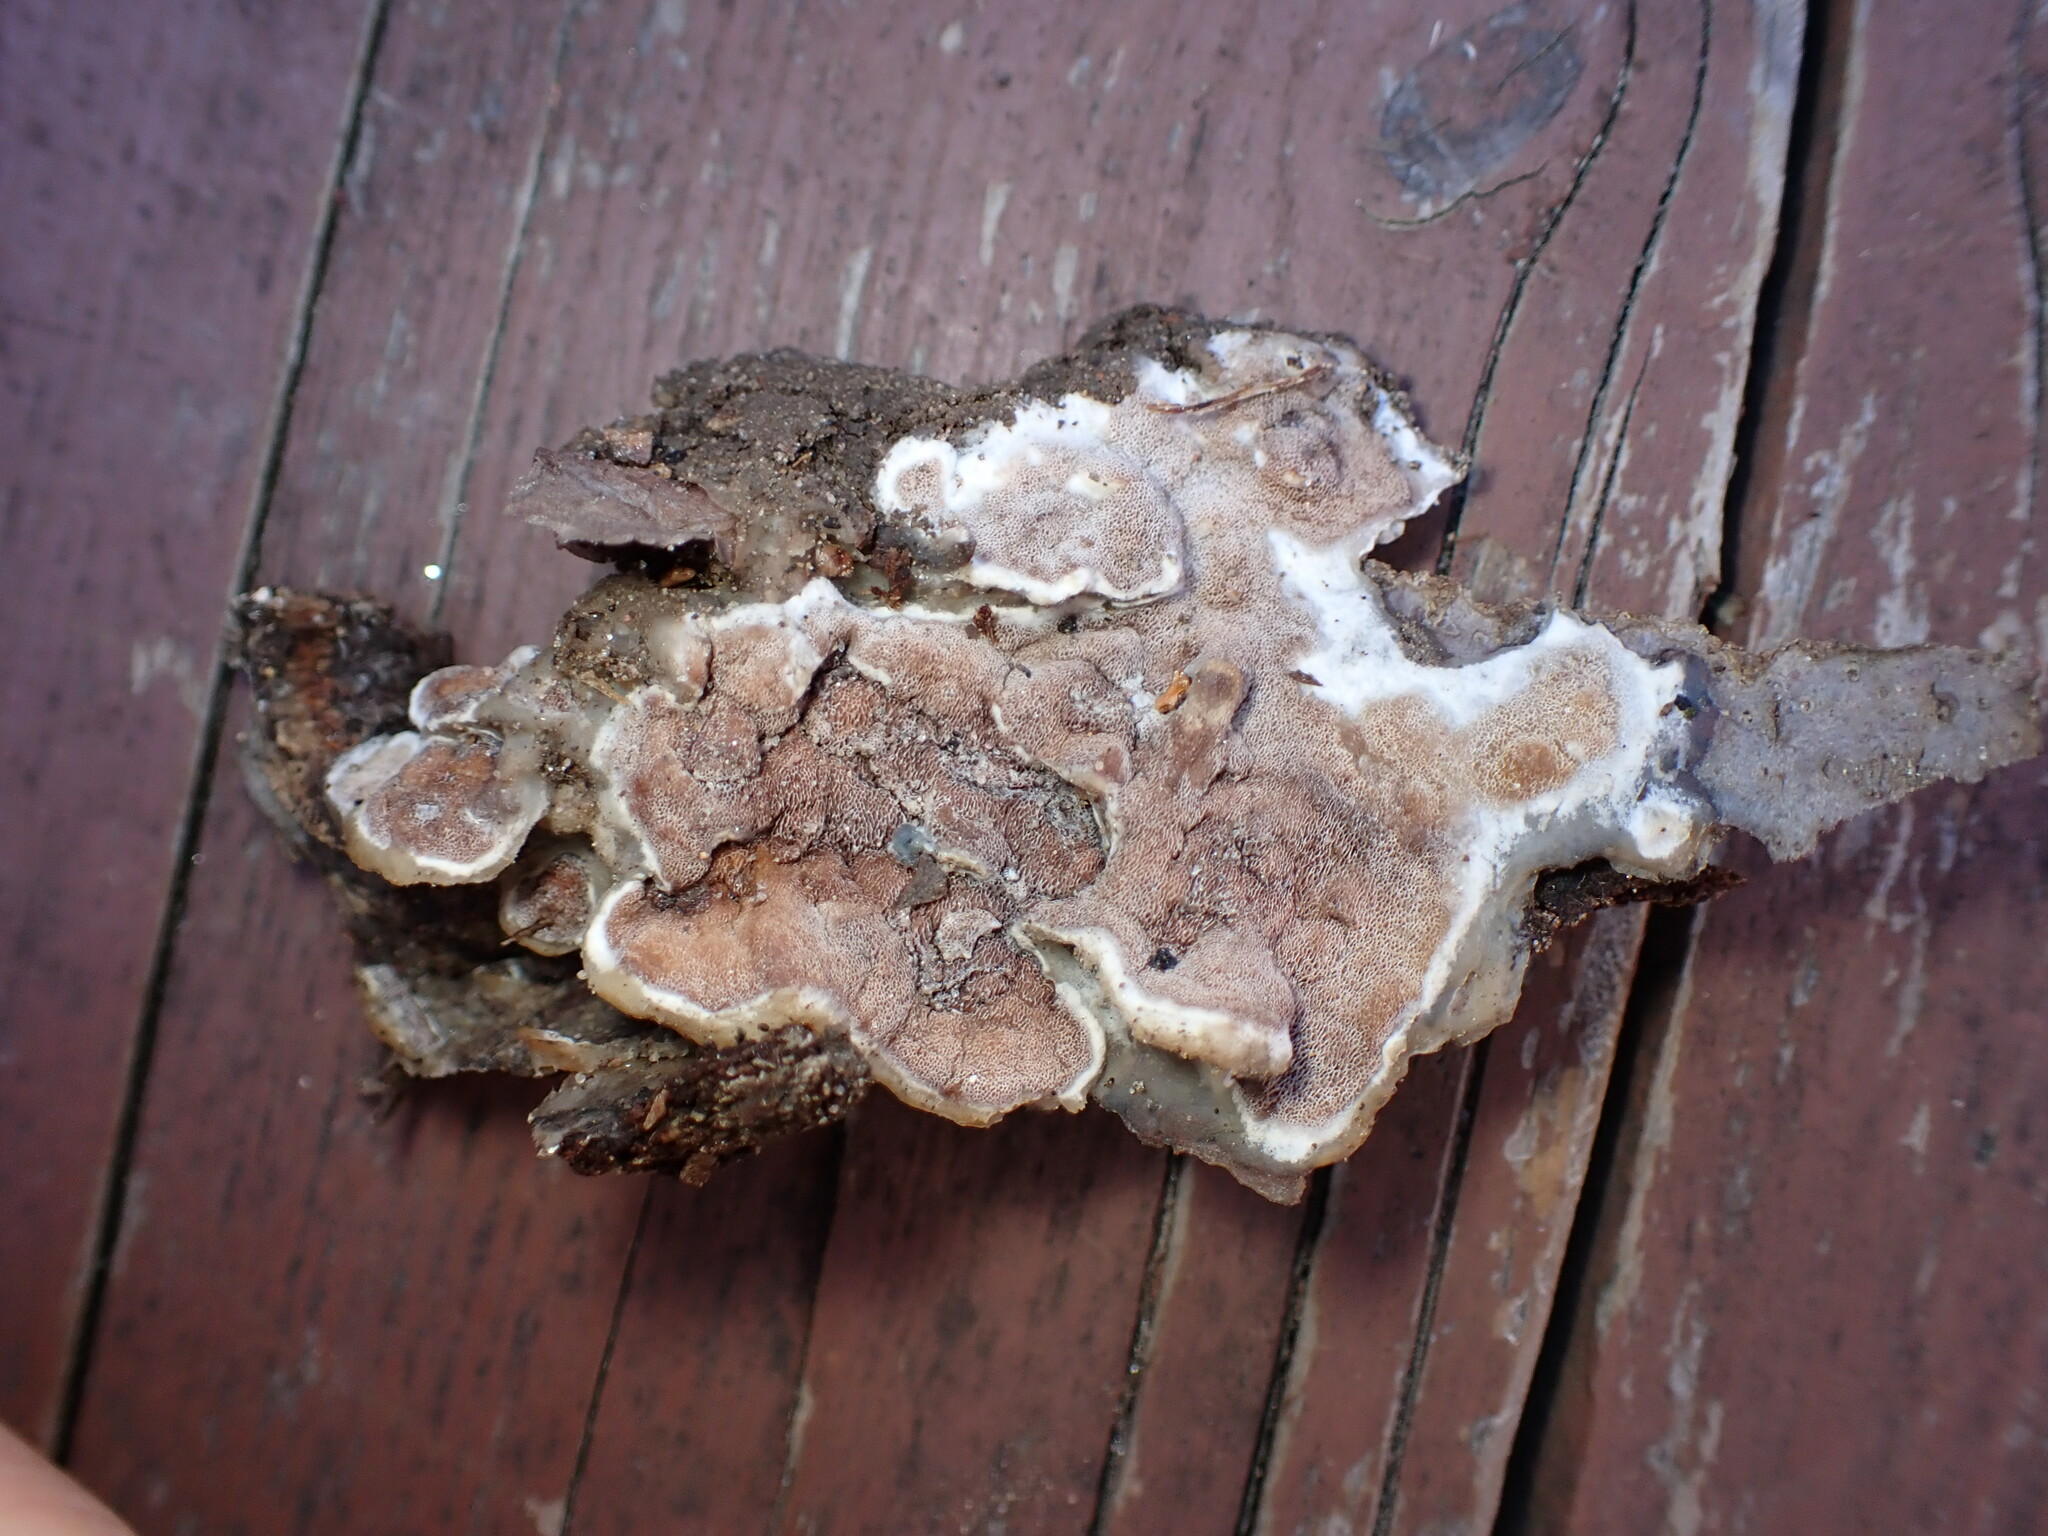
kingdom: Fungi
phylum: Basidiomycota
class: Agaricomycetes
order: Polyporales
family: Irpicaceae
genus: Vitreoporus
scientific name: Vitreoporus dichrous
